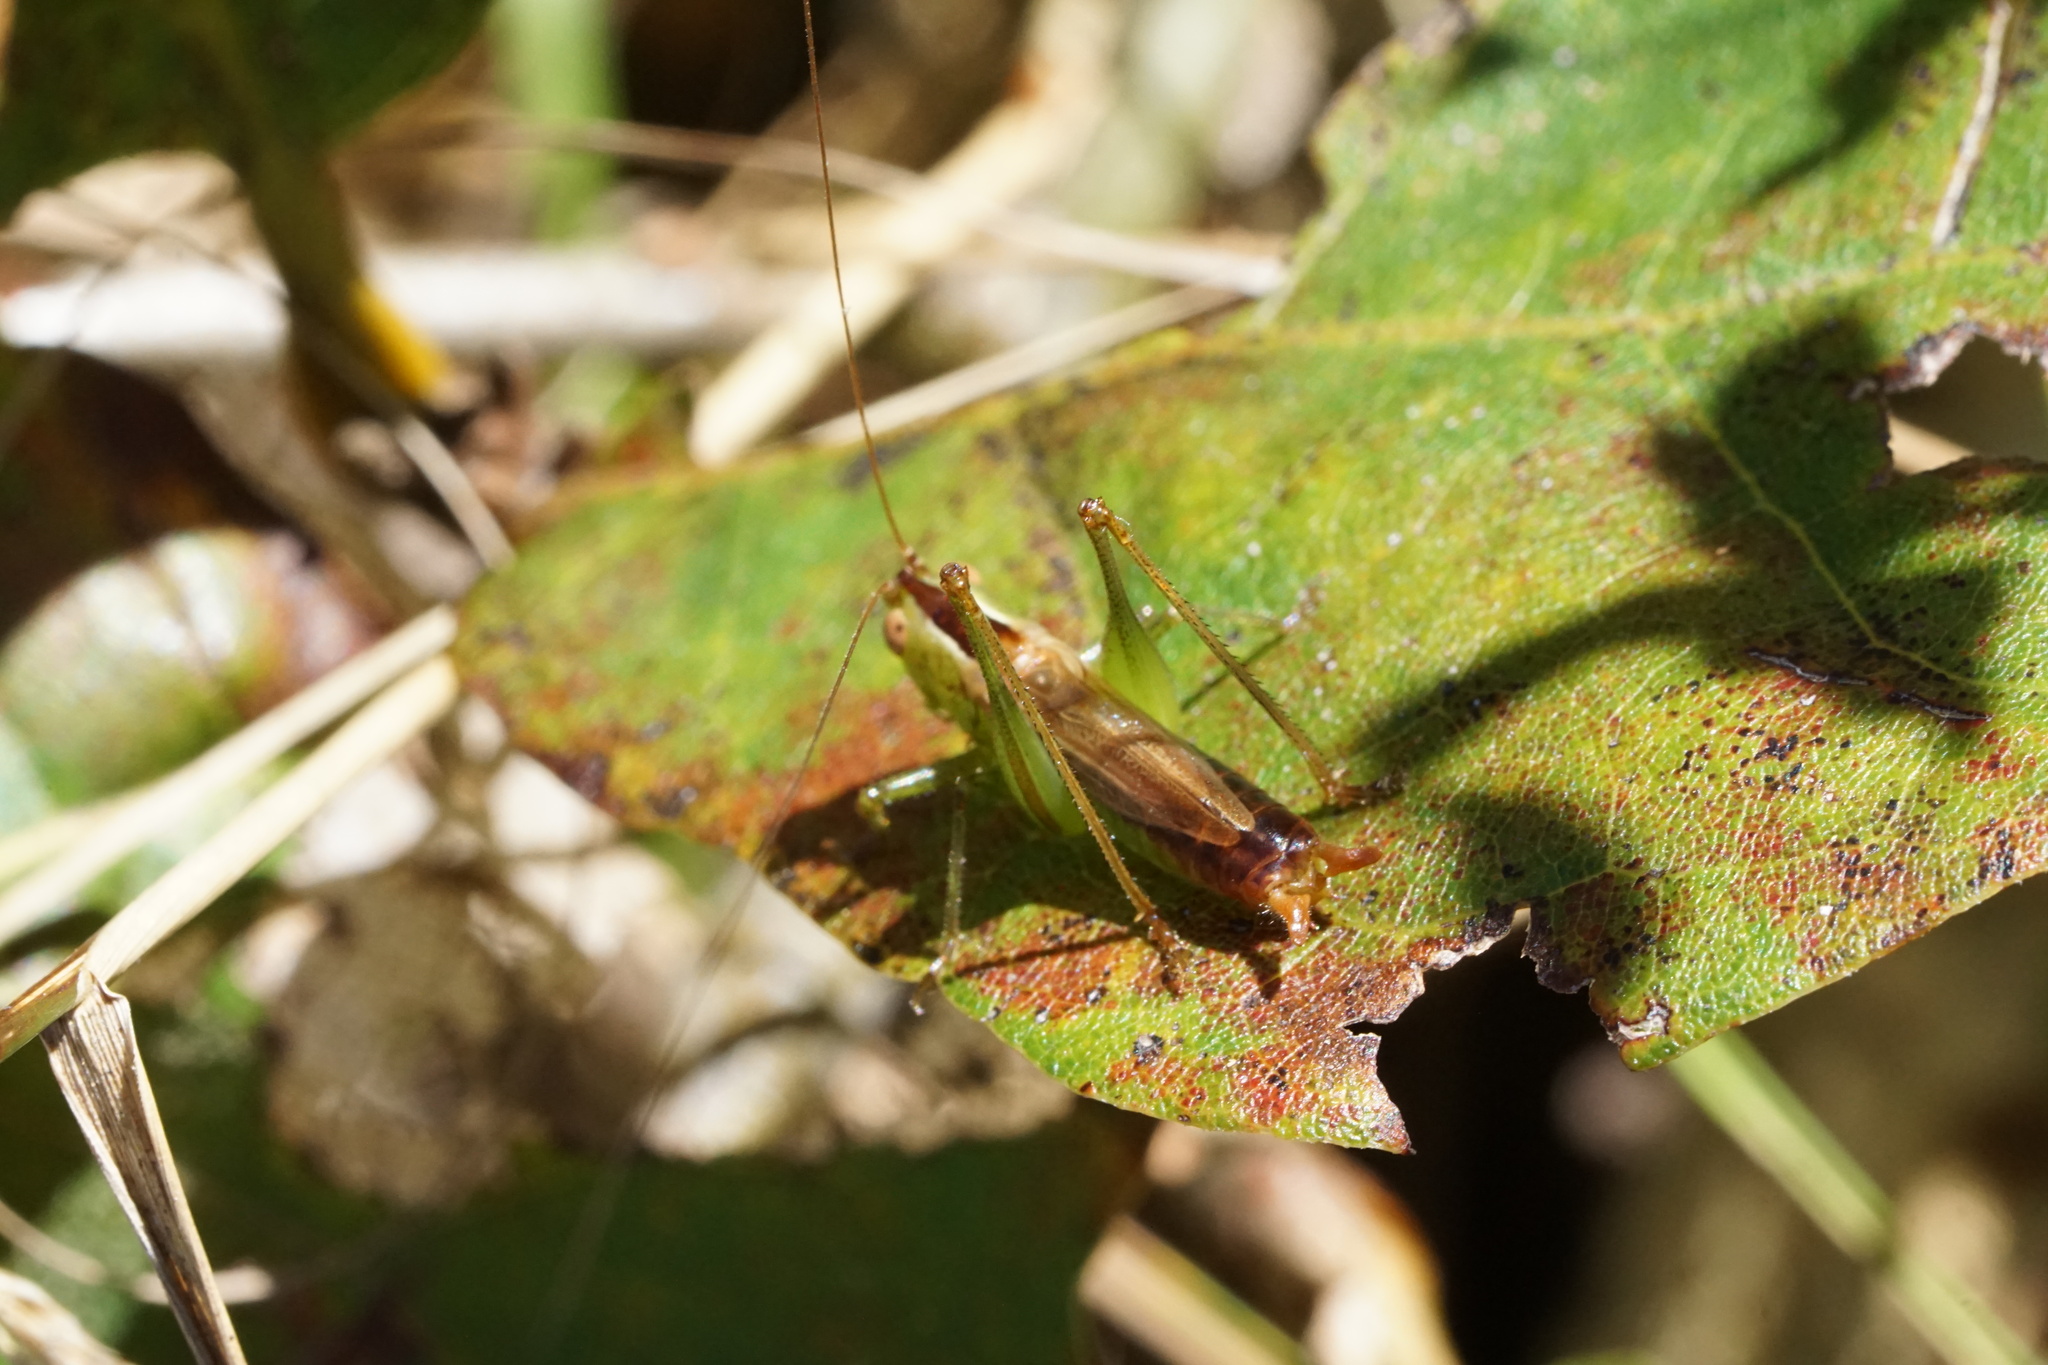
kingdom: Animalia
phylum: Arthropoda
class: Insecta
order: Orthoptera
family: Tettigoniidae
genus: Conocephalus
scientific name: Conocephalus brevipennis
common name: Short-winged meadow katydid
